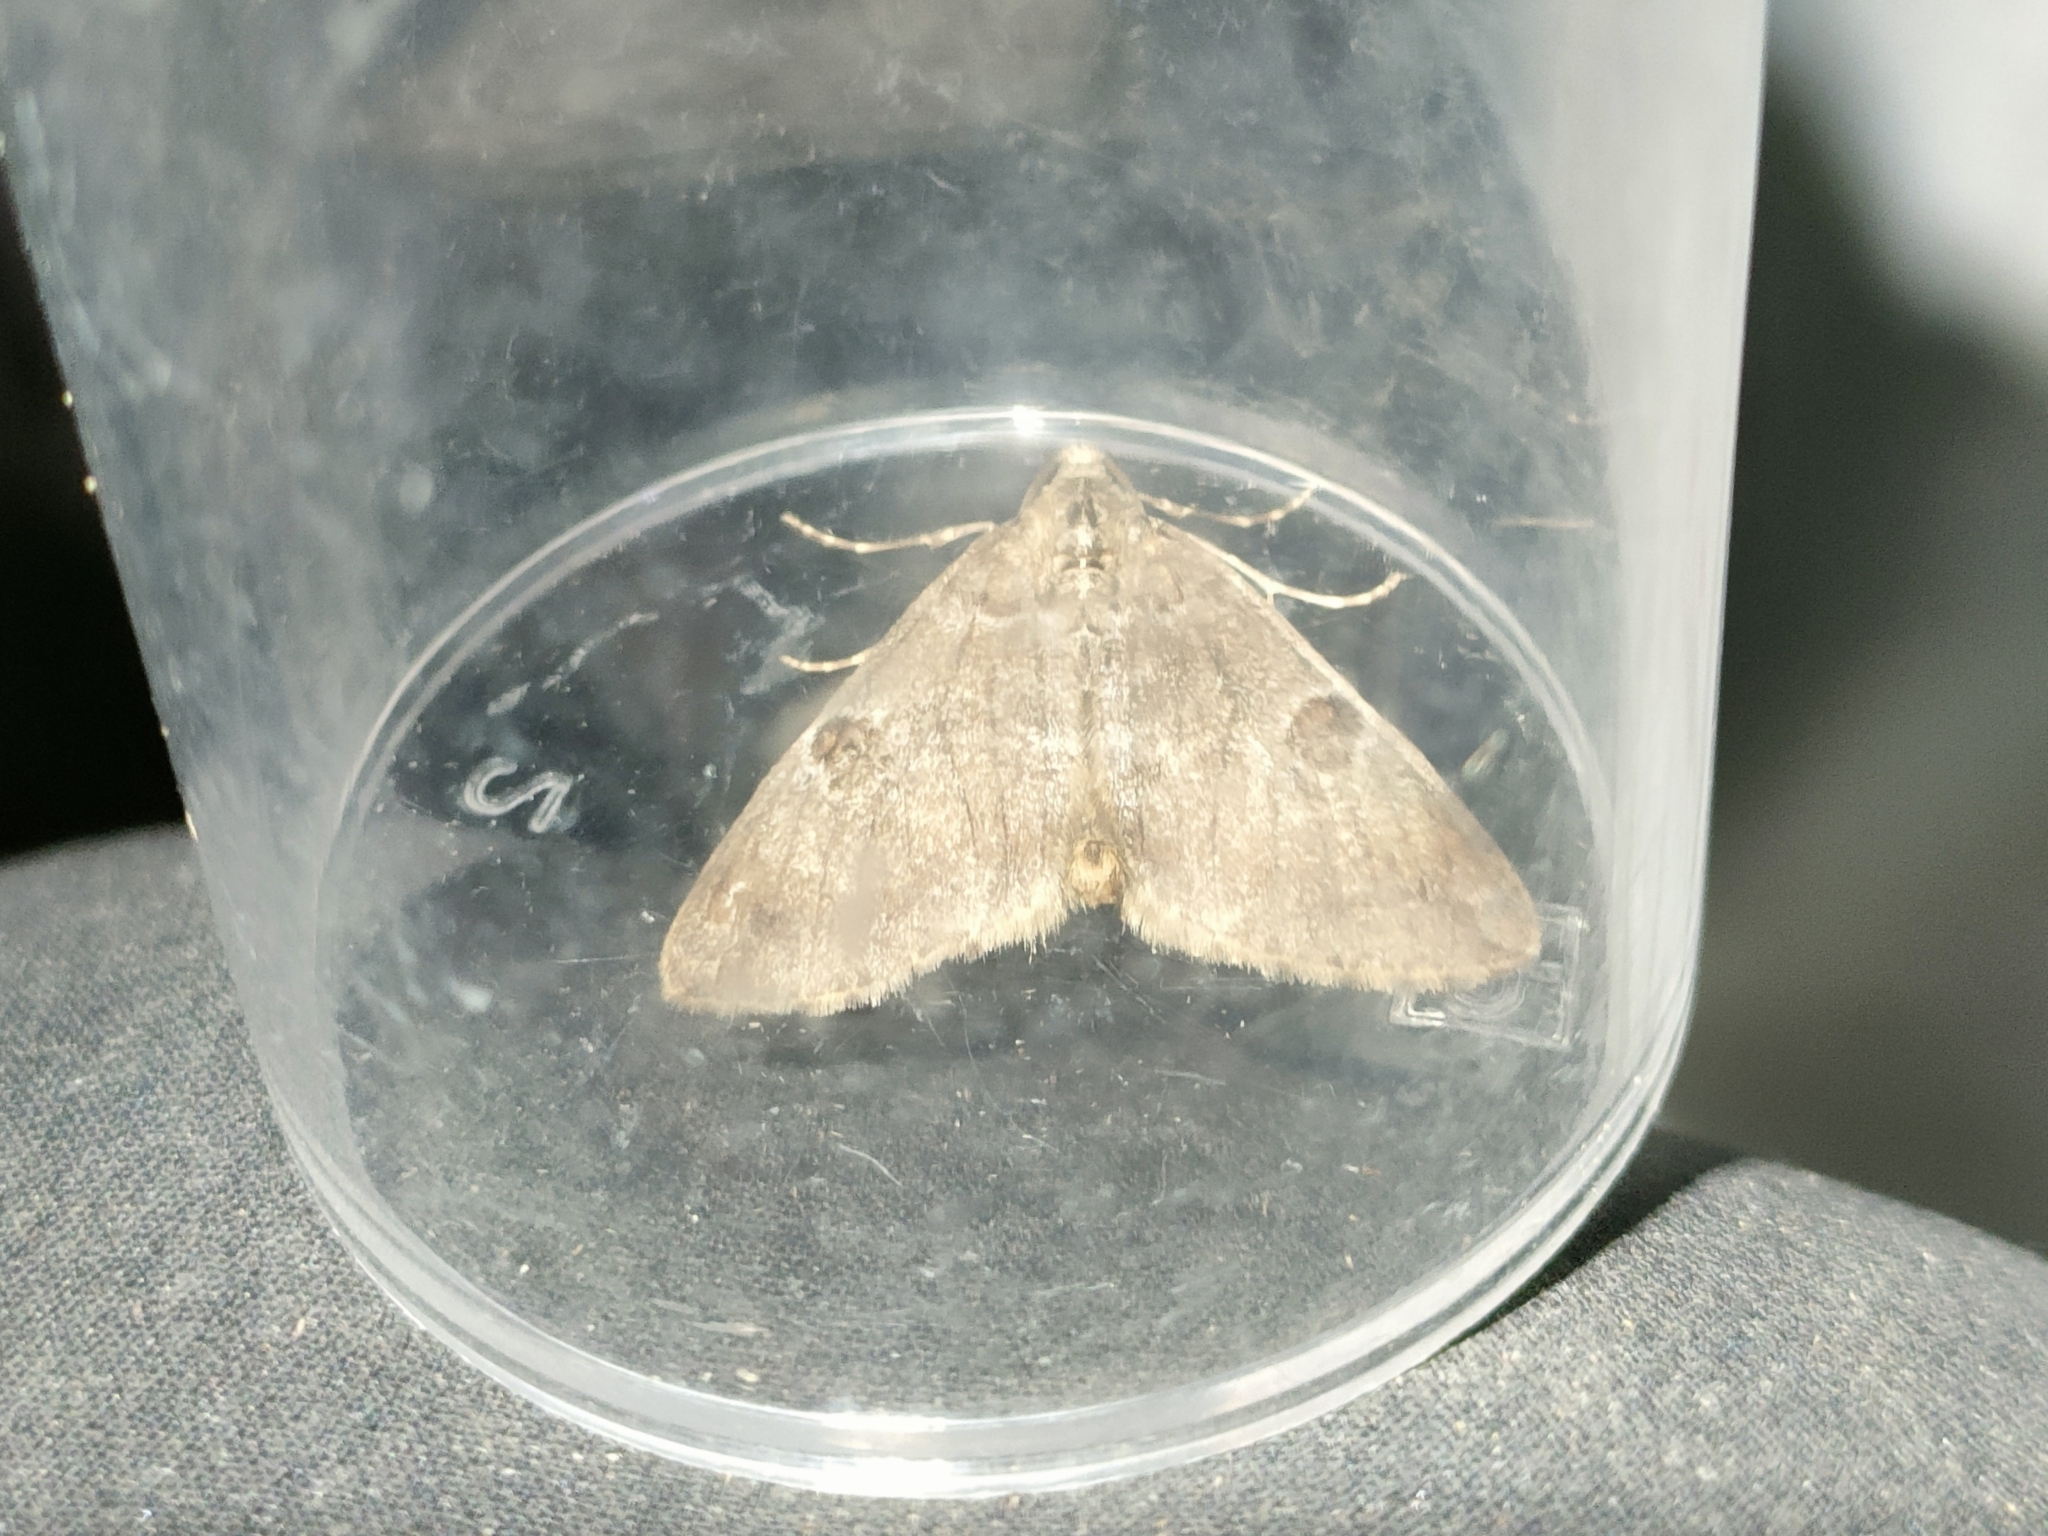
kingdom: Animalia
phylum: Arthropoda
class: Insecta
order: Lepidoptera
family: Geometridae
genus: Thera
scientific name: Thera variata
